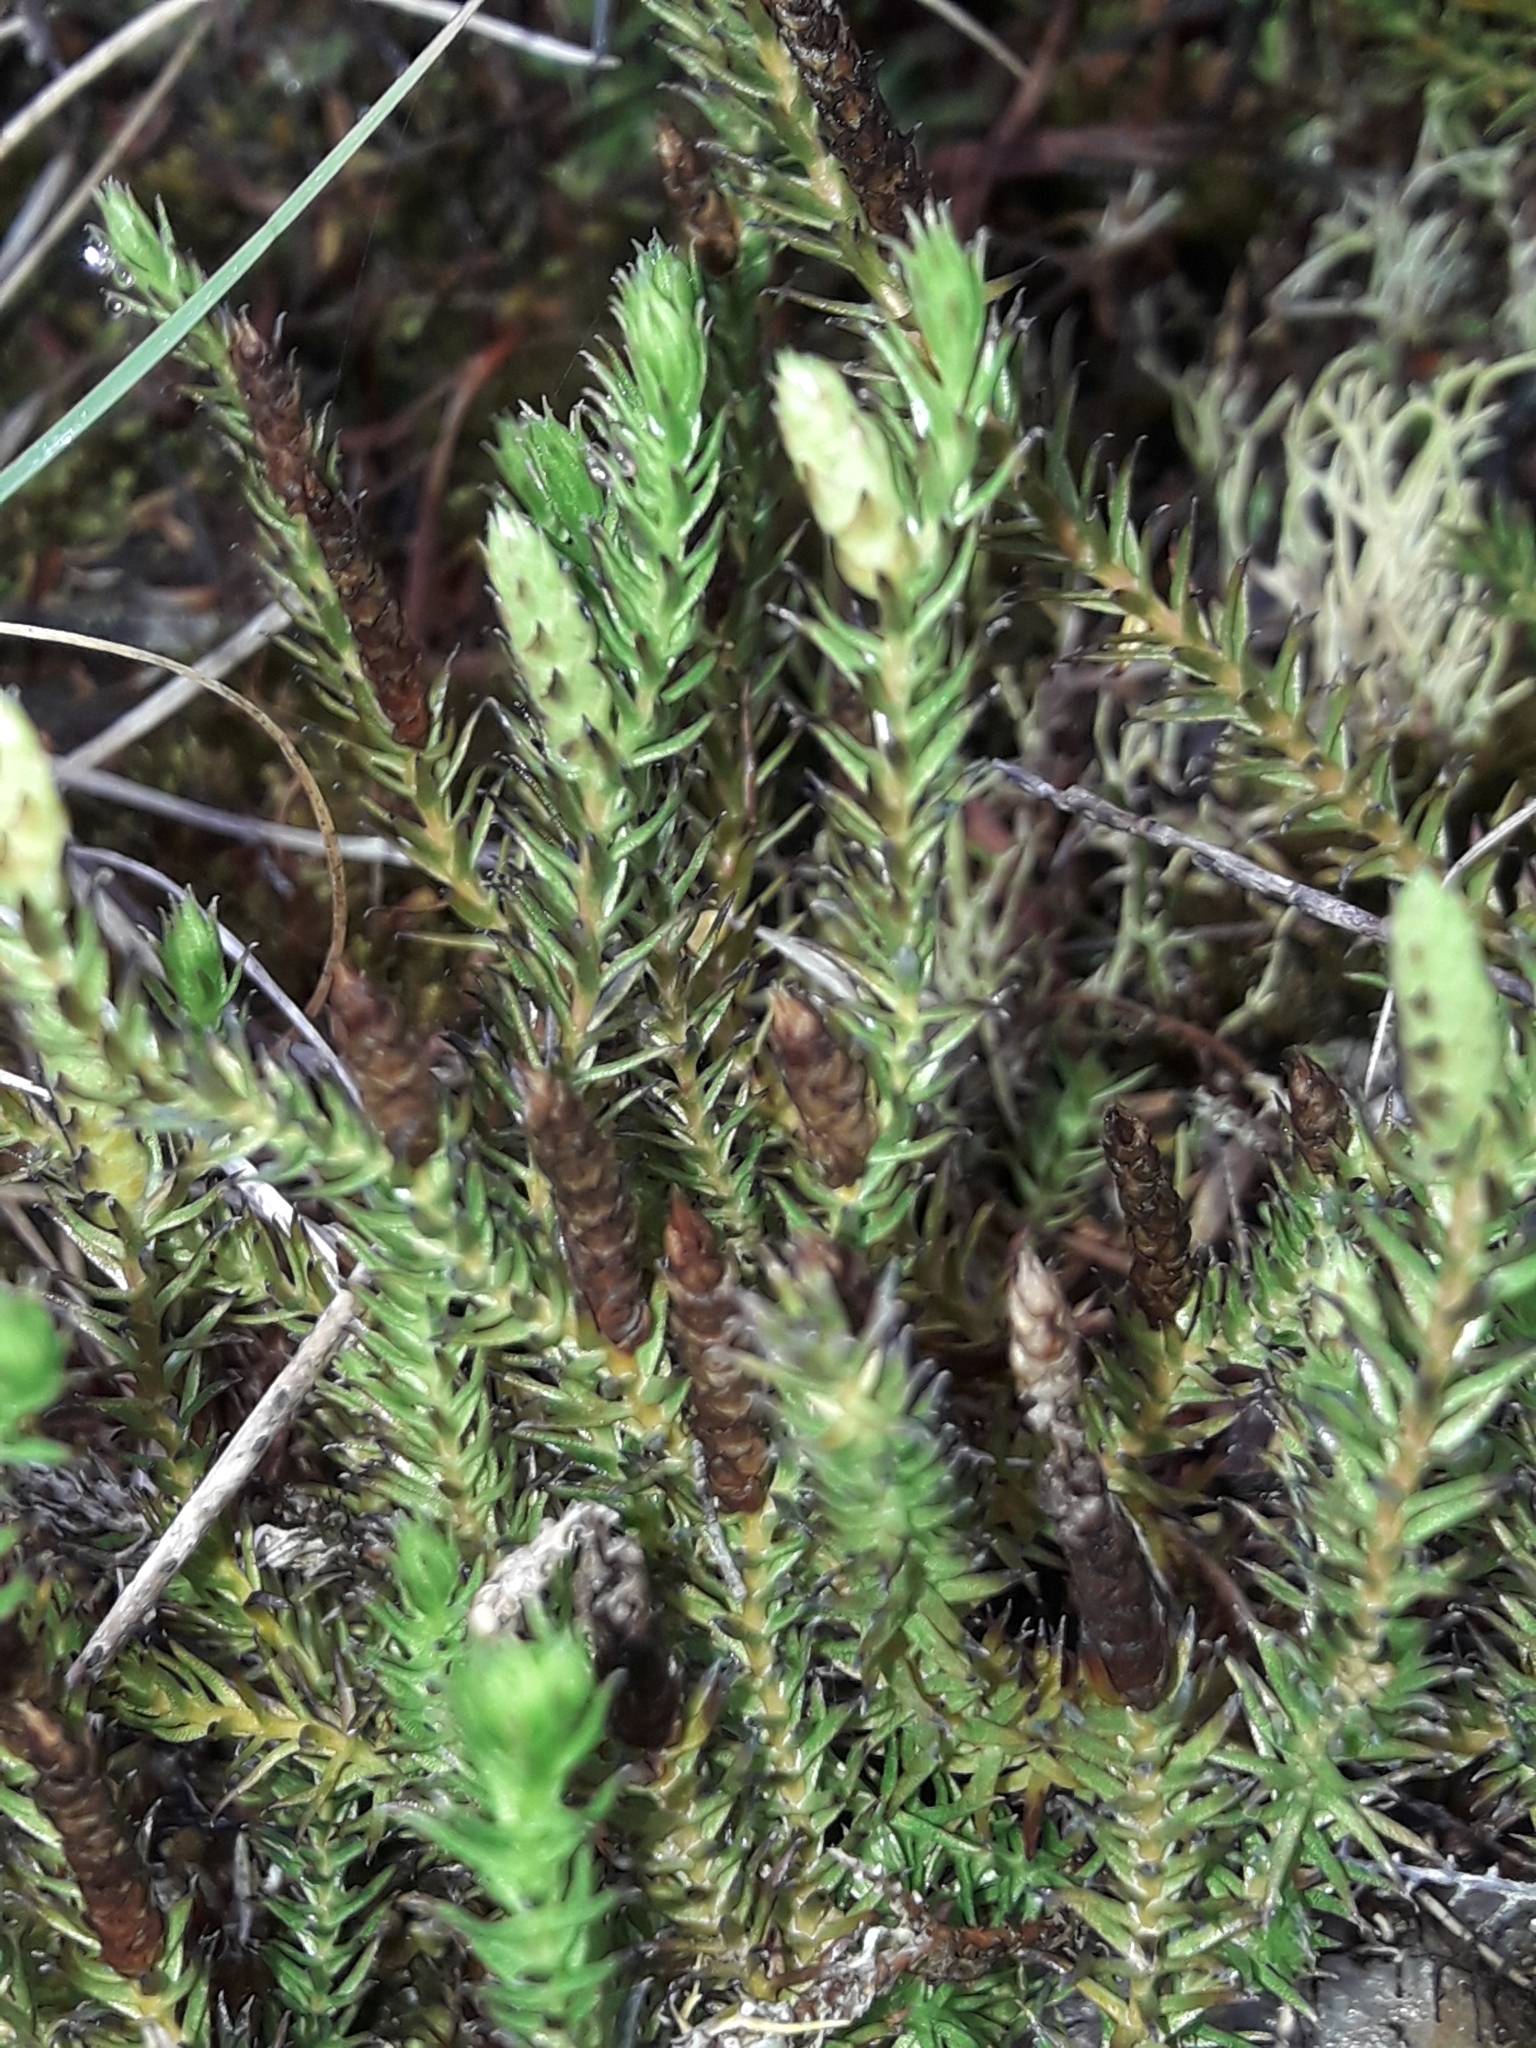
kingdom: Plantae
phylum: Tracheophyta
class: Lycopodiopsida
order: Lycopodiales
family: Lycopodiaceae
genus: Lateristachys
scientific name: Lateristachys lateralis
